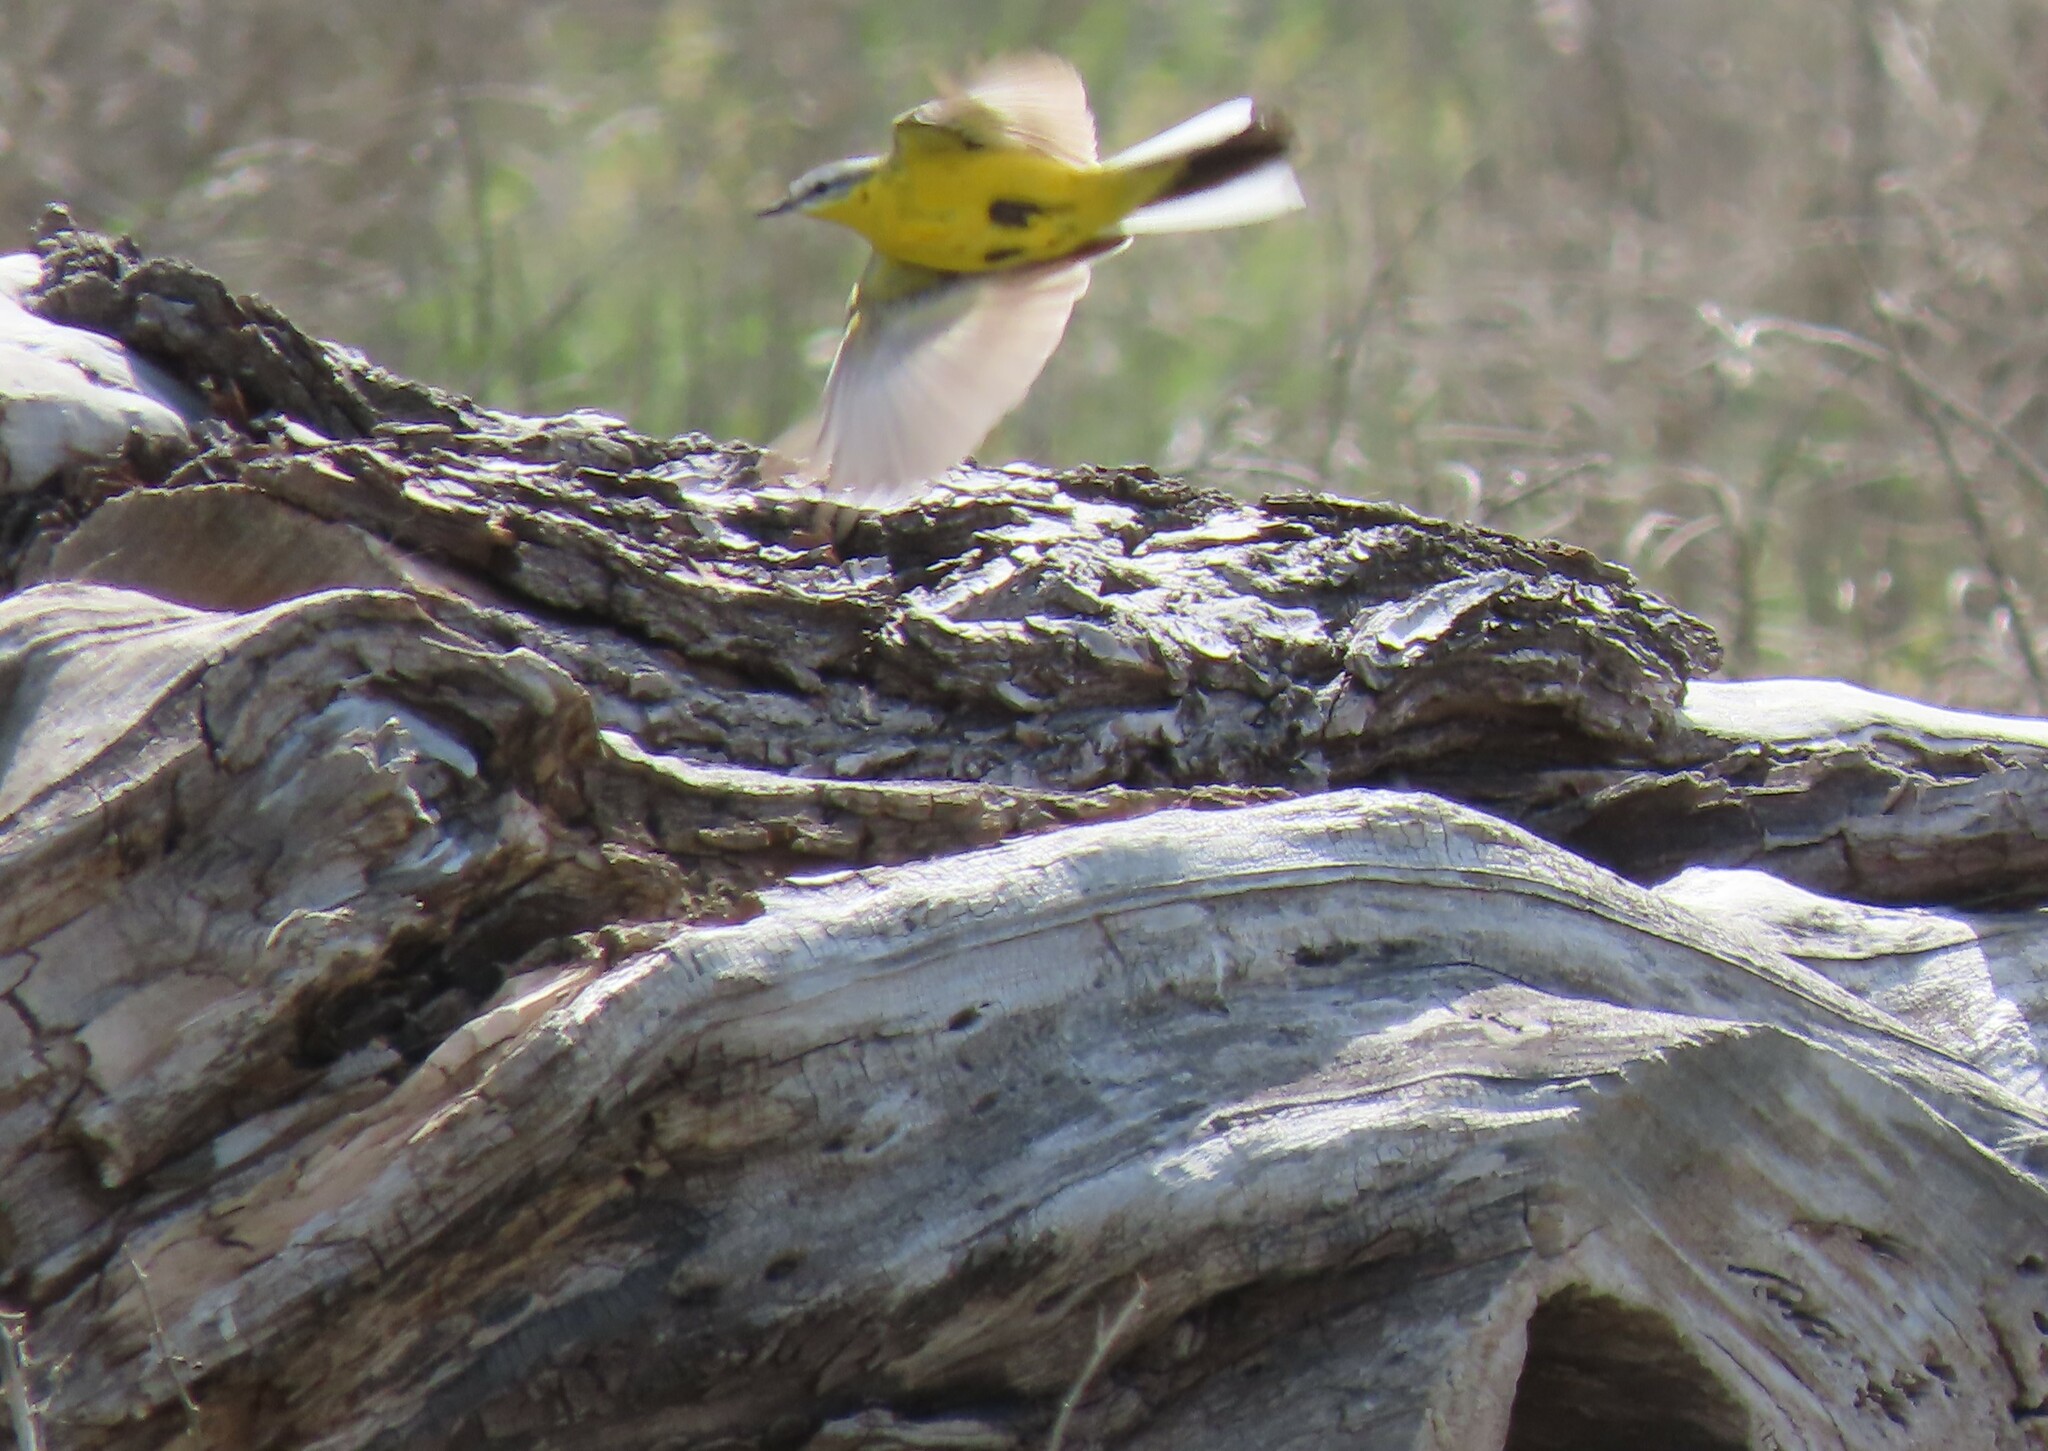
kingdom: Animalia
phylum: Chordata
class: Aves
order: Passeriformes
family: Motacillidae
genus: Motacilla
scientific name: Motacilla flava
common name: Western yellow wagtail
